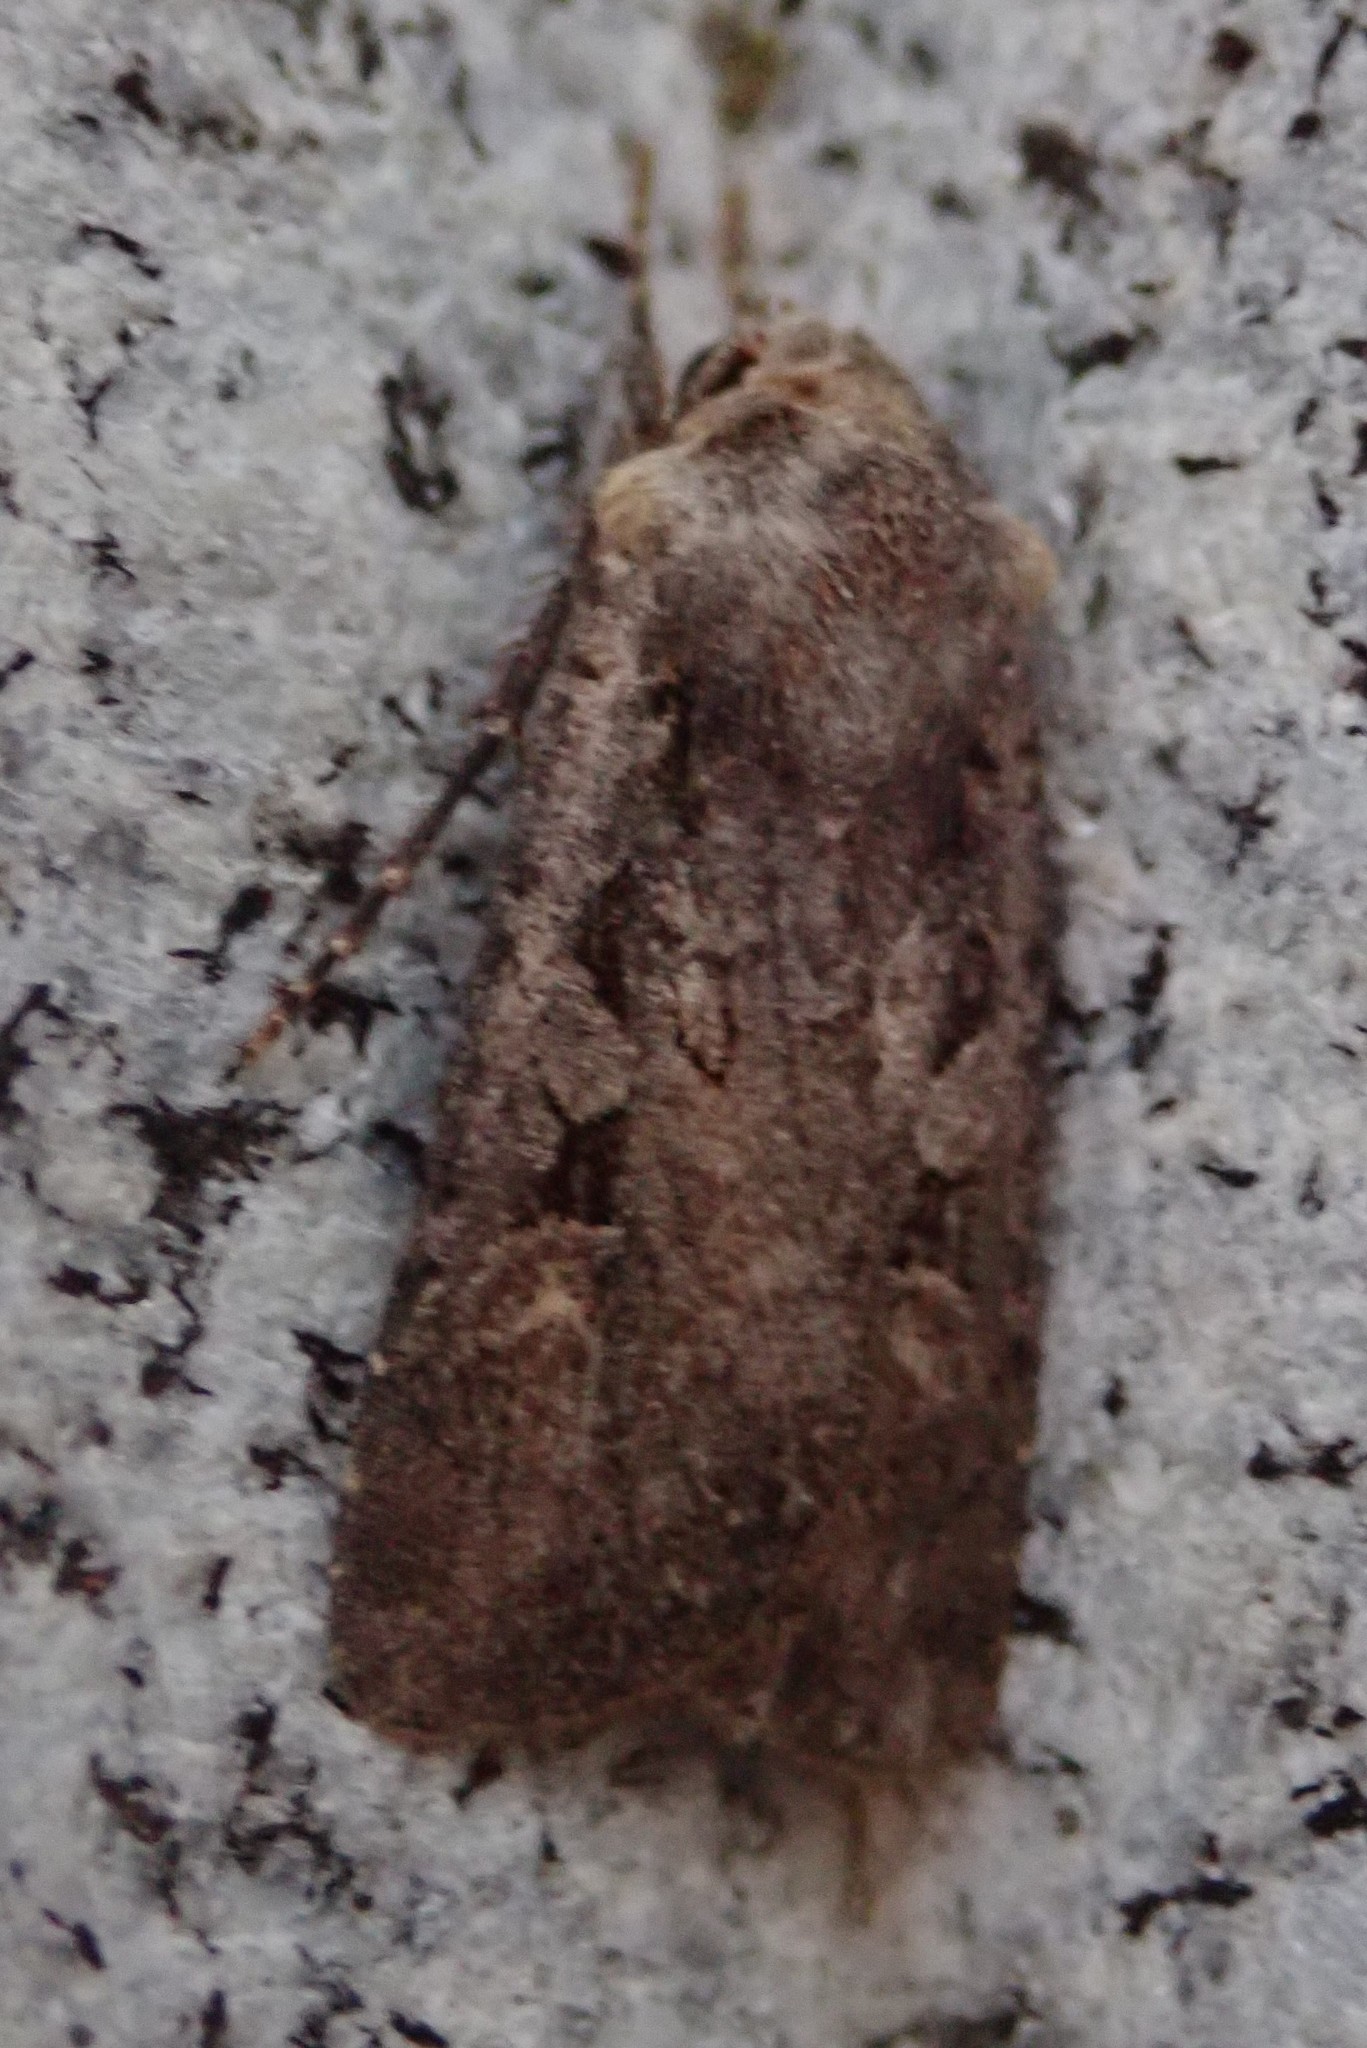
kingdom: Animalia
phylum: Arthropoda
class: Insecta
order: Lepidoptera
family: Noctuidae
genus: Euxoa
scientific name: Euxoa tessellata
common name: Striped cutworm
